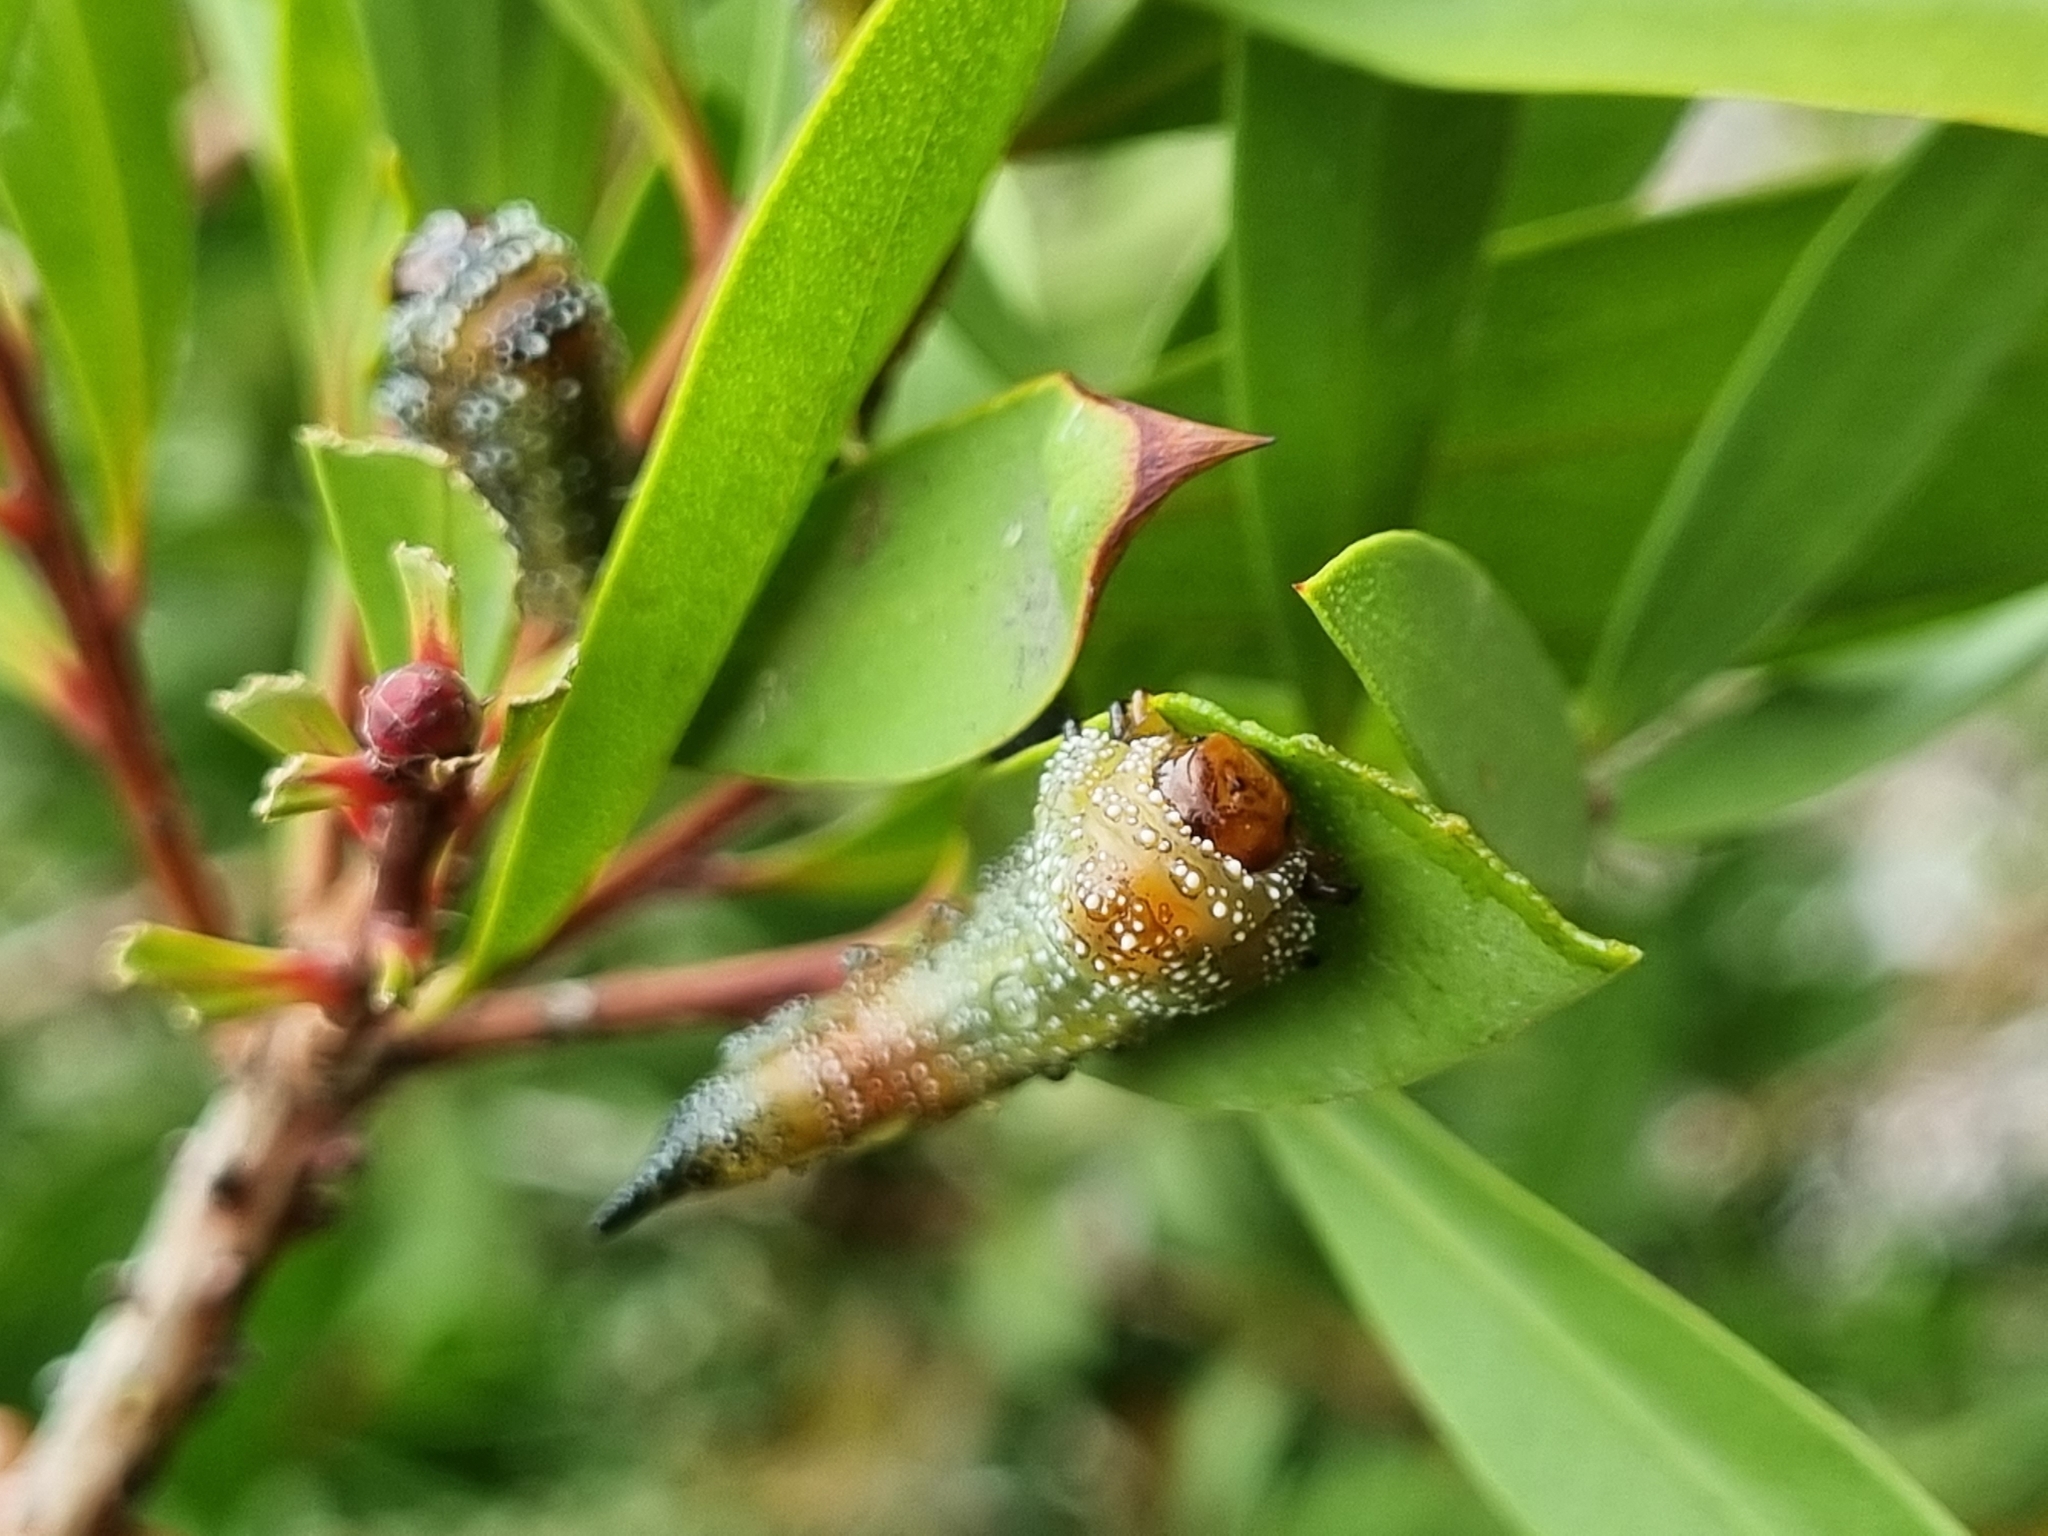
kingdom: Animalia
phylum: Arthropoda
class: Insecta
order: Hymenoptera
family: Pergidae
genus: Pterygophorus
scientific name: Pterygophorus
